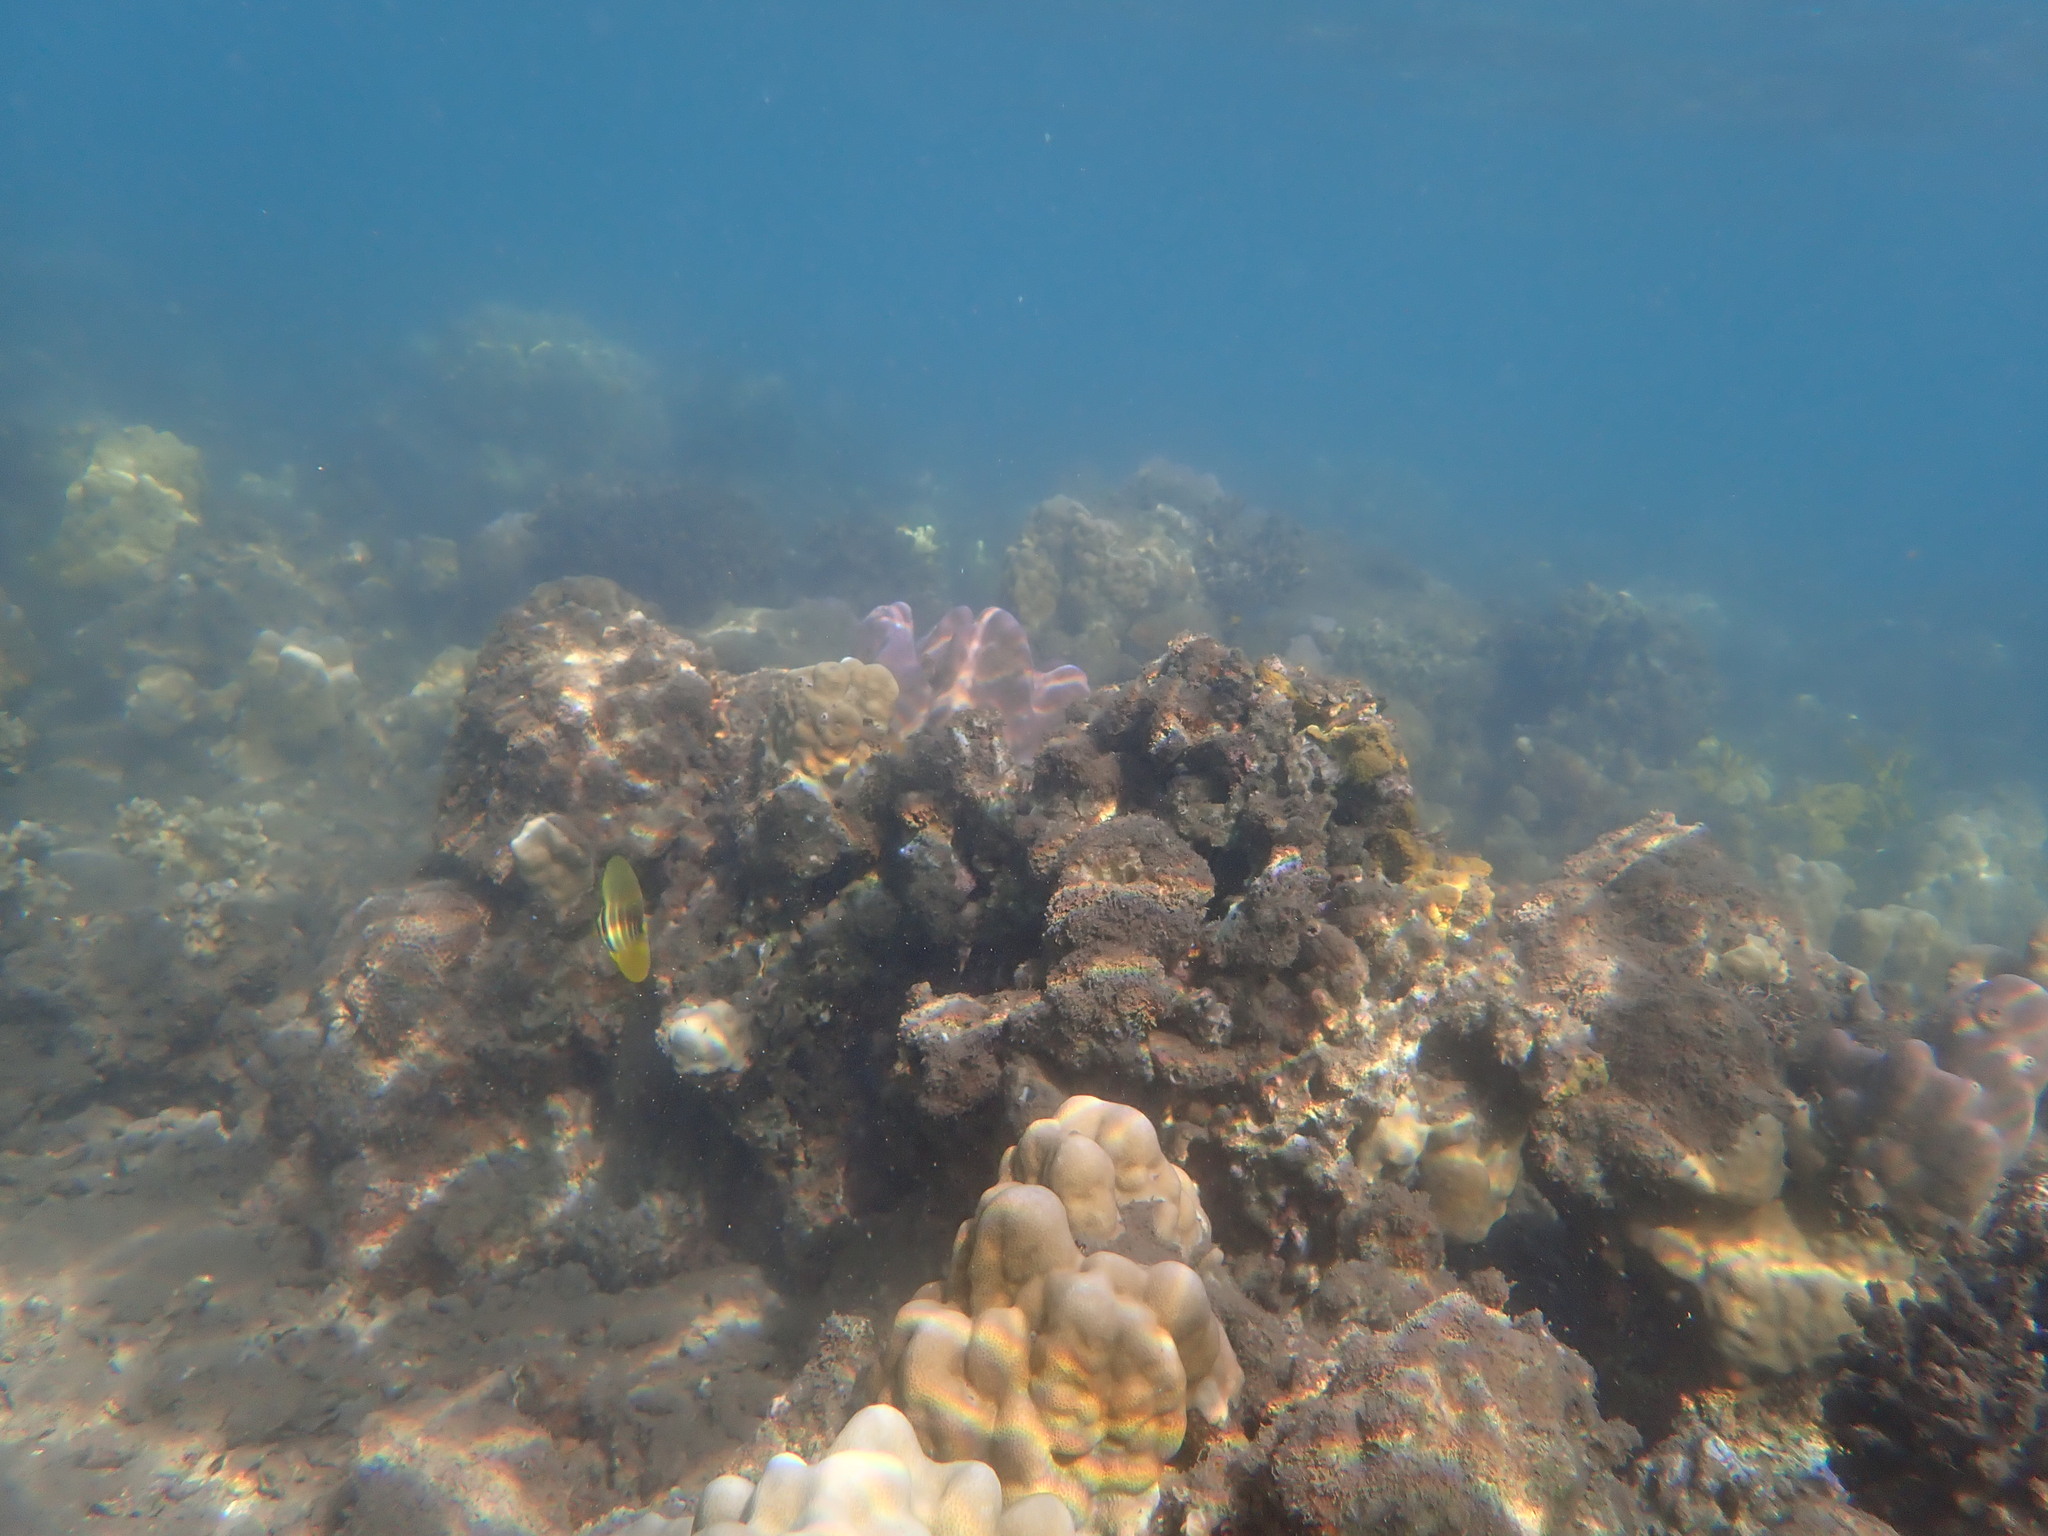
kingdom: Animalia
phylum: Chordata
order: Perciformes
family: Acanthuridae
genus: Zebrasoma
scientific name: Zebrasoma veliferum
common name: Sailfin surgeonfish
